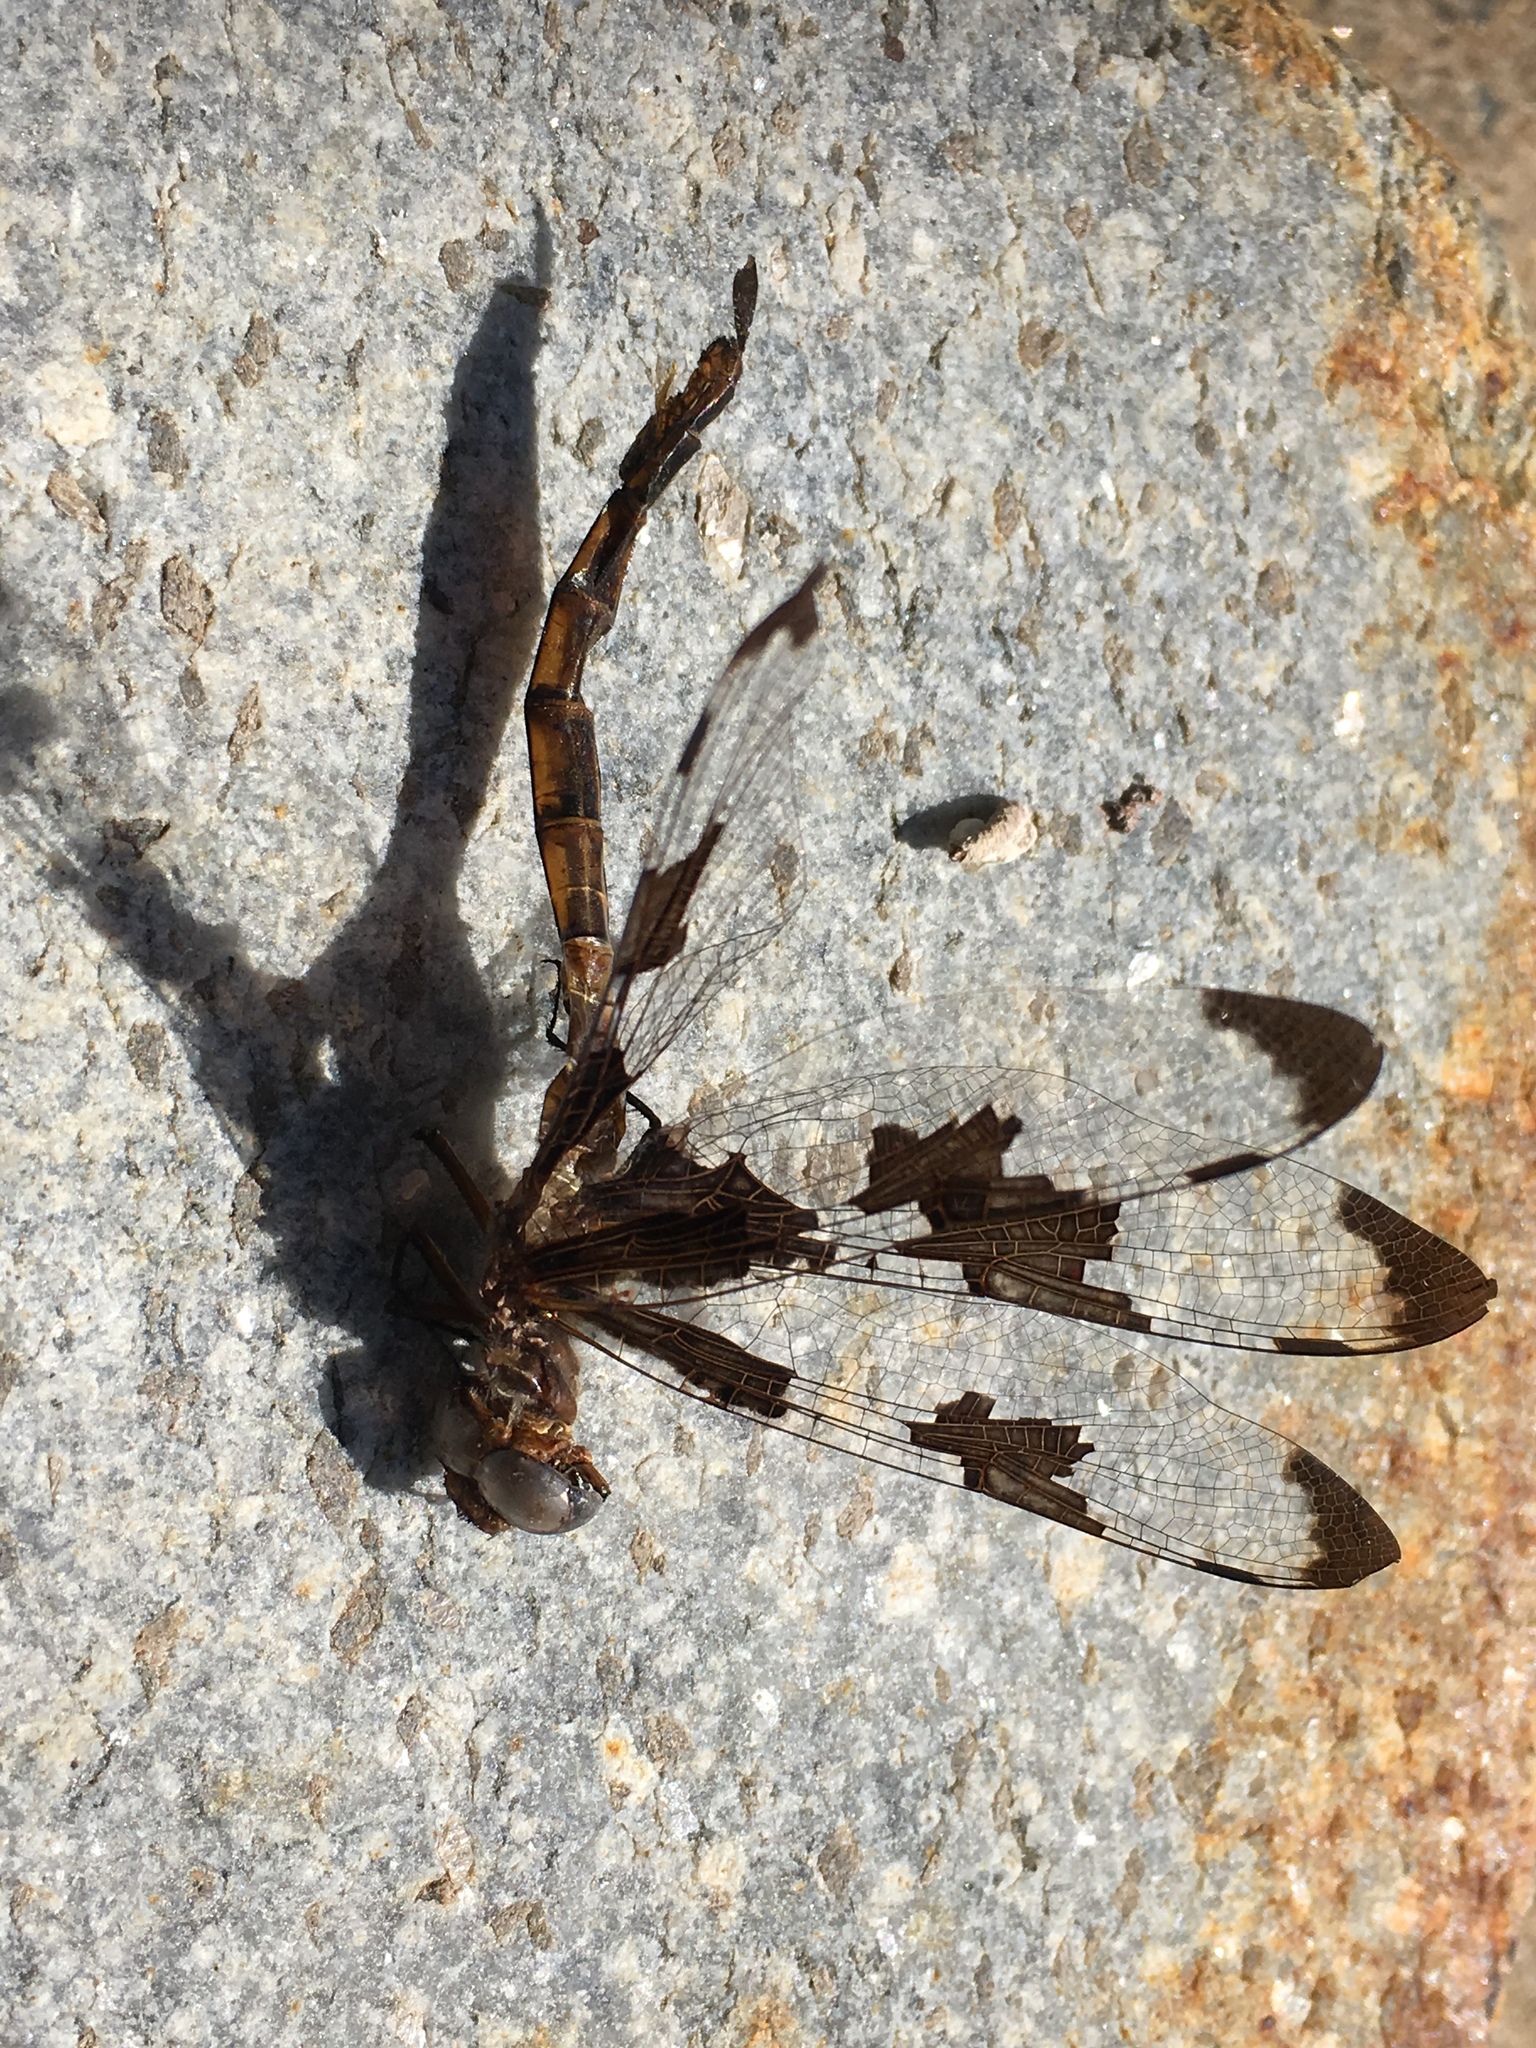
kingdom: Animalia
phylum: Arthropoda
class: Insecta
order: Odonata
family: Corduliidae
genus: Epitheca
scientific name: Epitheca princeps
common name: Prince baskettail
